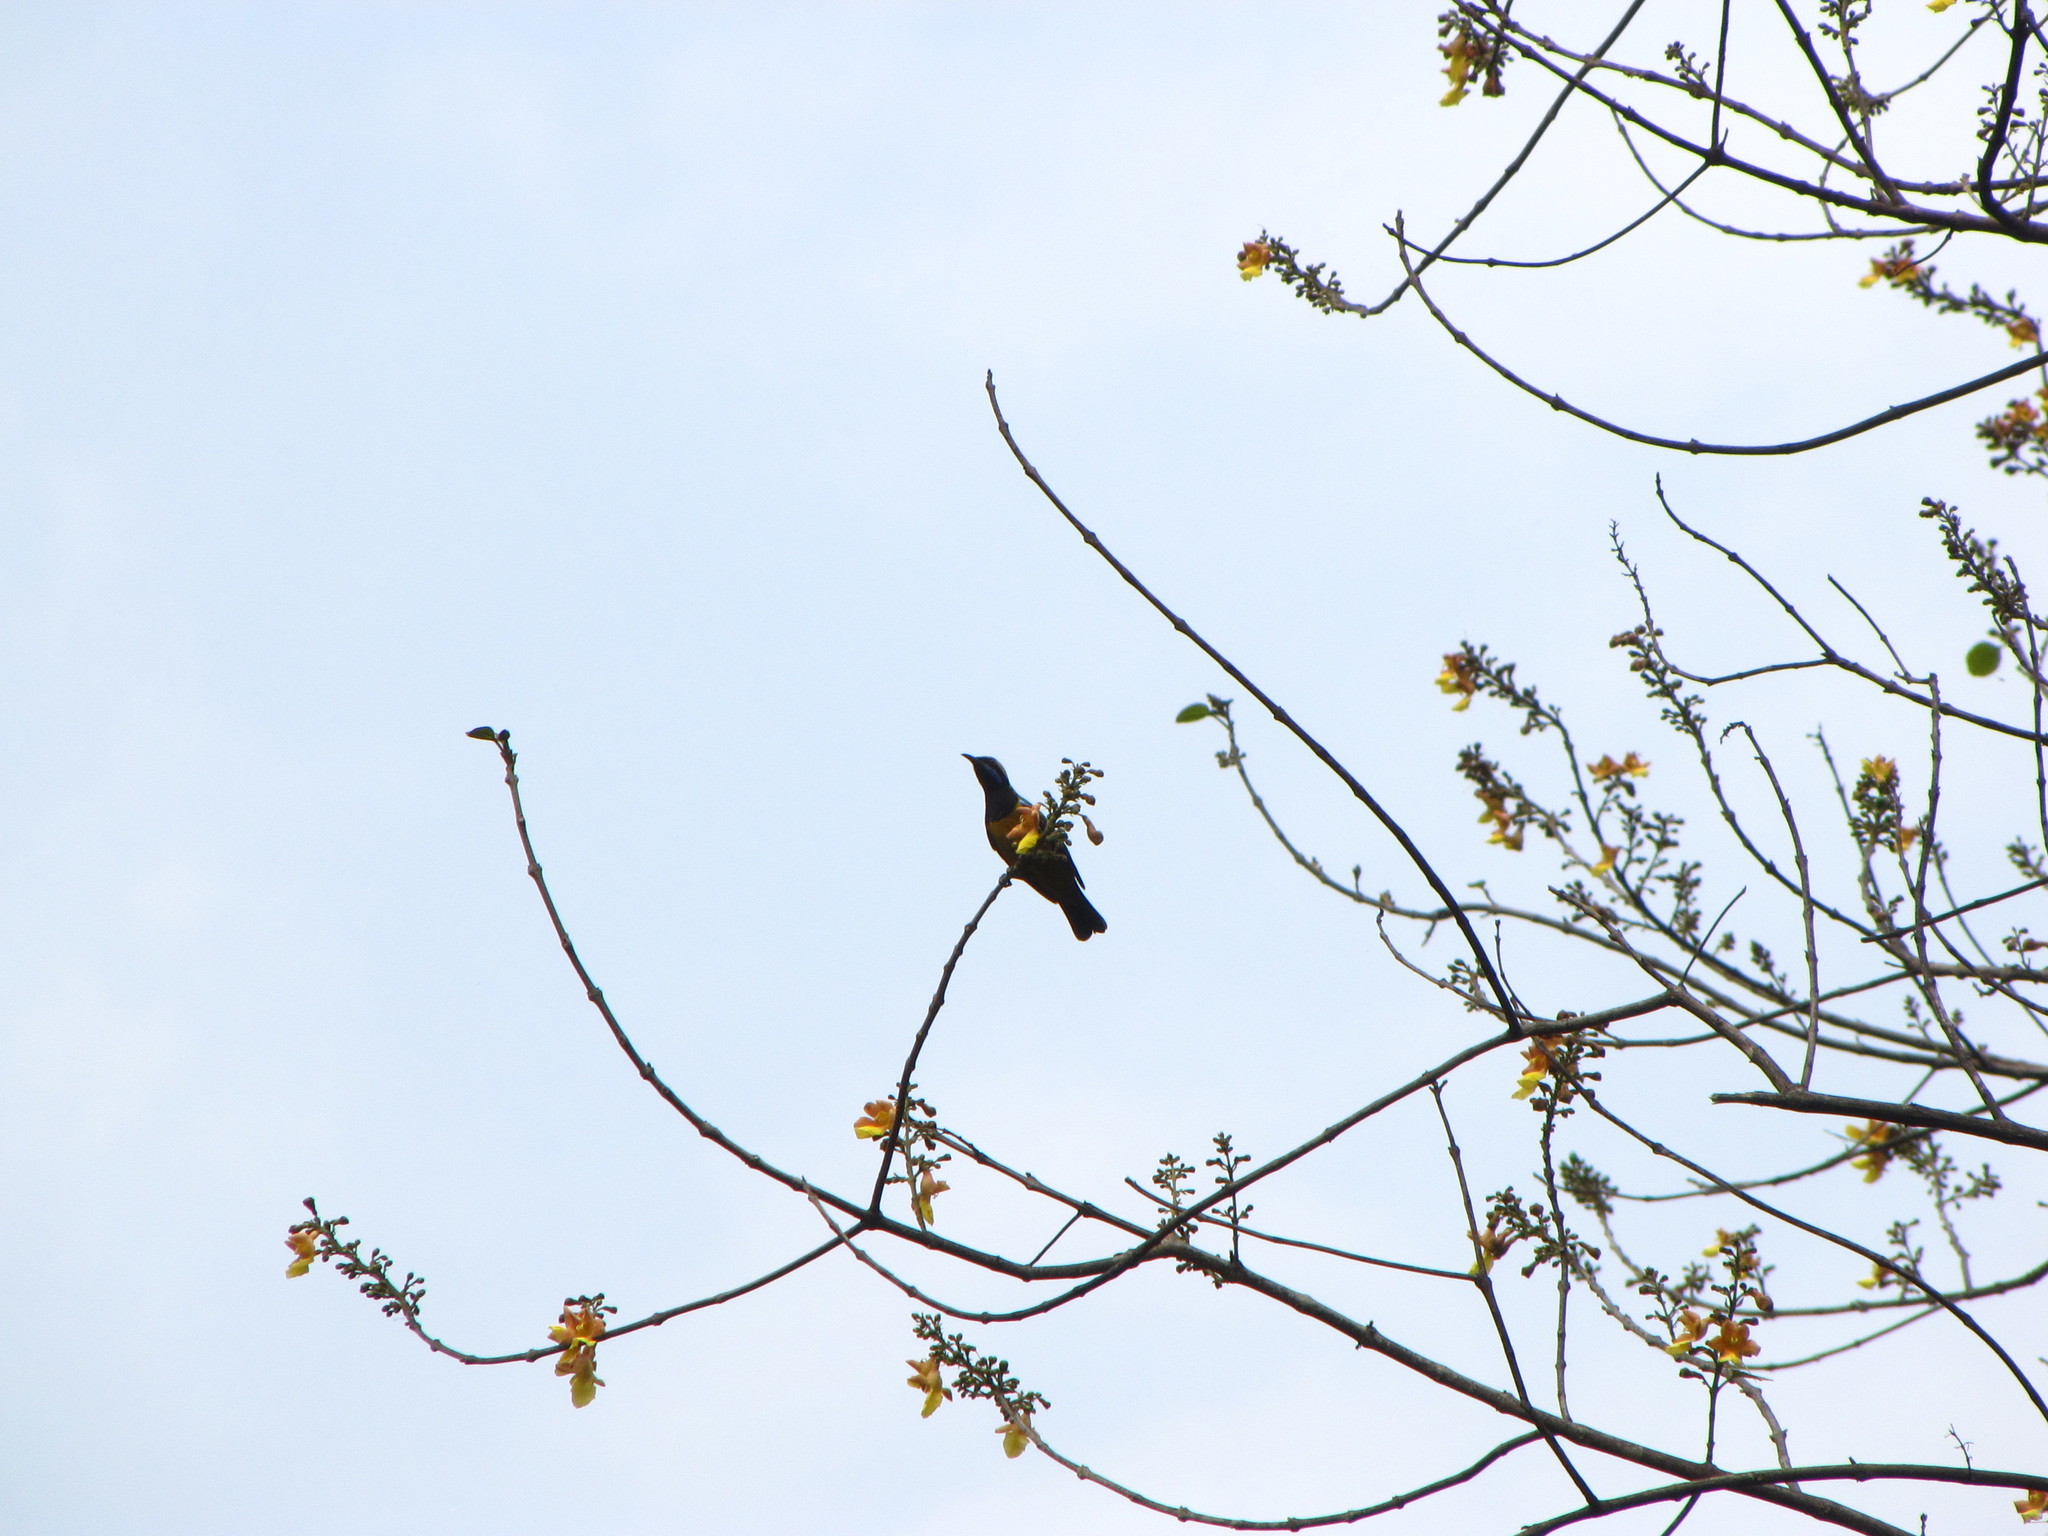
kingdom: Animalia
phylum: Chordata
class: Aves
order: Passeriformes
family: Chloropseidae
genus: Chloropsis
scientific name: Chloropsis hardwickii
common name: Orange-bellied leafbird
